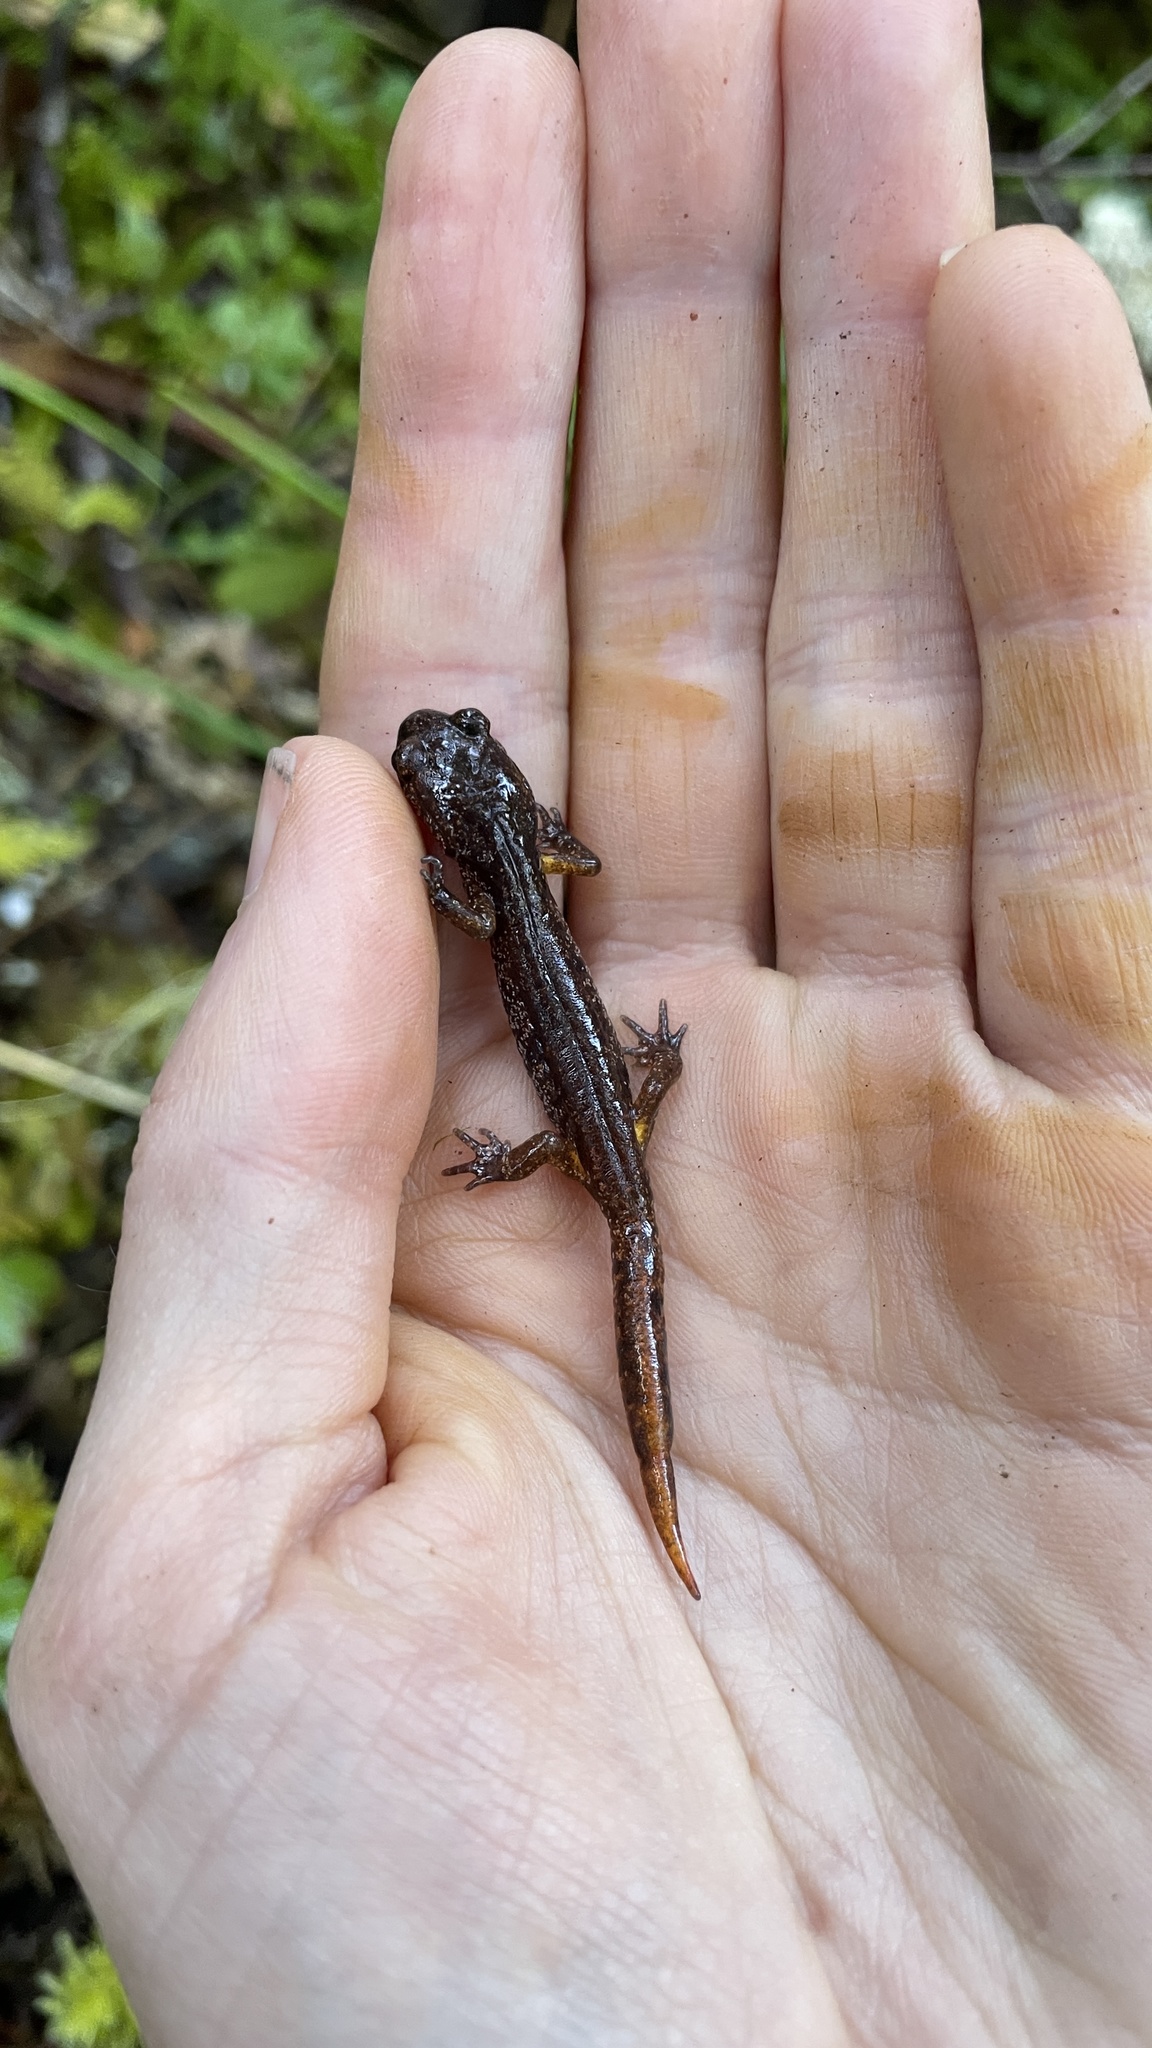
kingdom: Animalia
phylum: Chordata
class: Amphibia
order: Caudata
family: Plethodontidae
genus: Ensatina
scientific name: Ensatina eschscholtzii
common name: Ensatina
